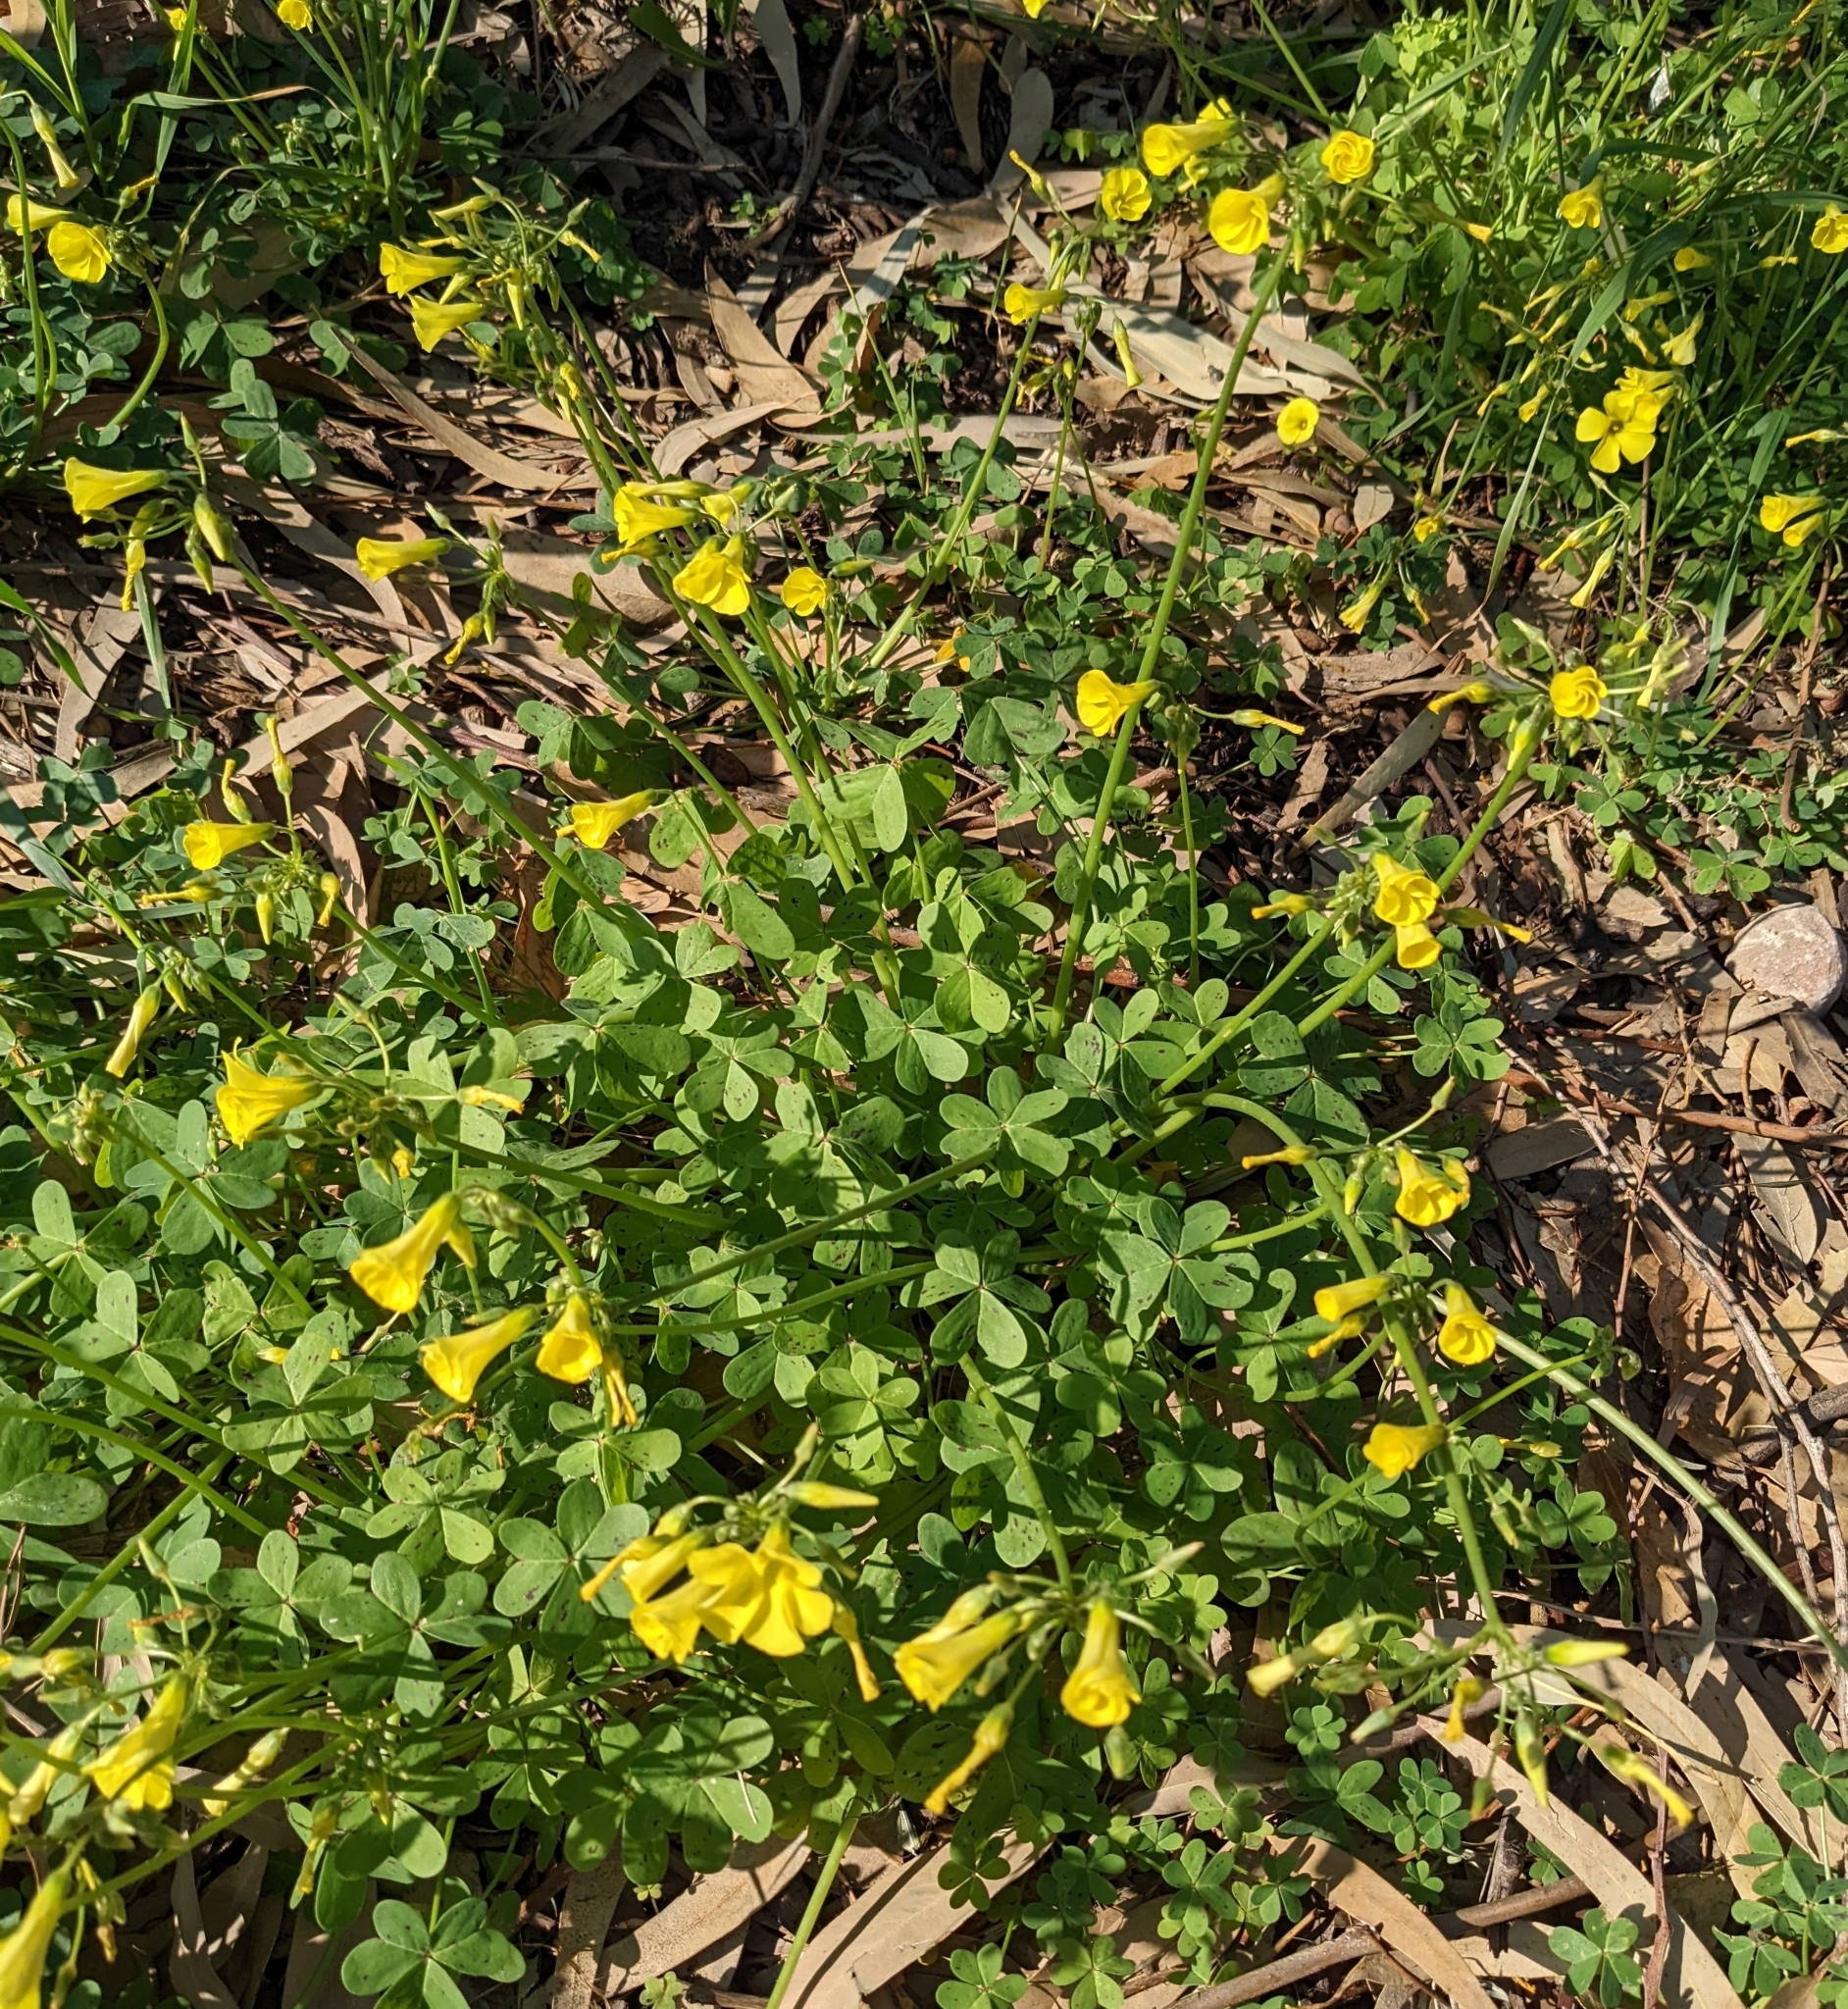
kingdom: Plantae
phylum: Tracheophyta
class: Magnoliopsida
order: Oxalidales
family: Oxalidaceae
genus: Oxalis
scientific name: Oxalis pes-caprae
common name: Bermuda-buttercup
